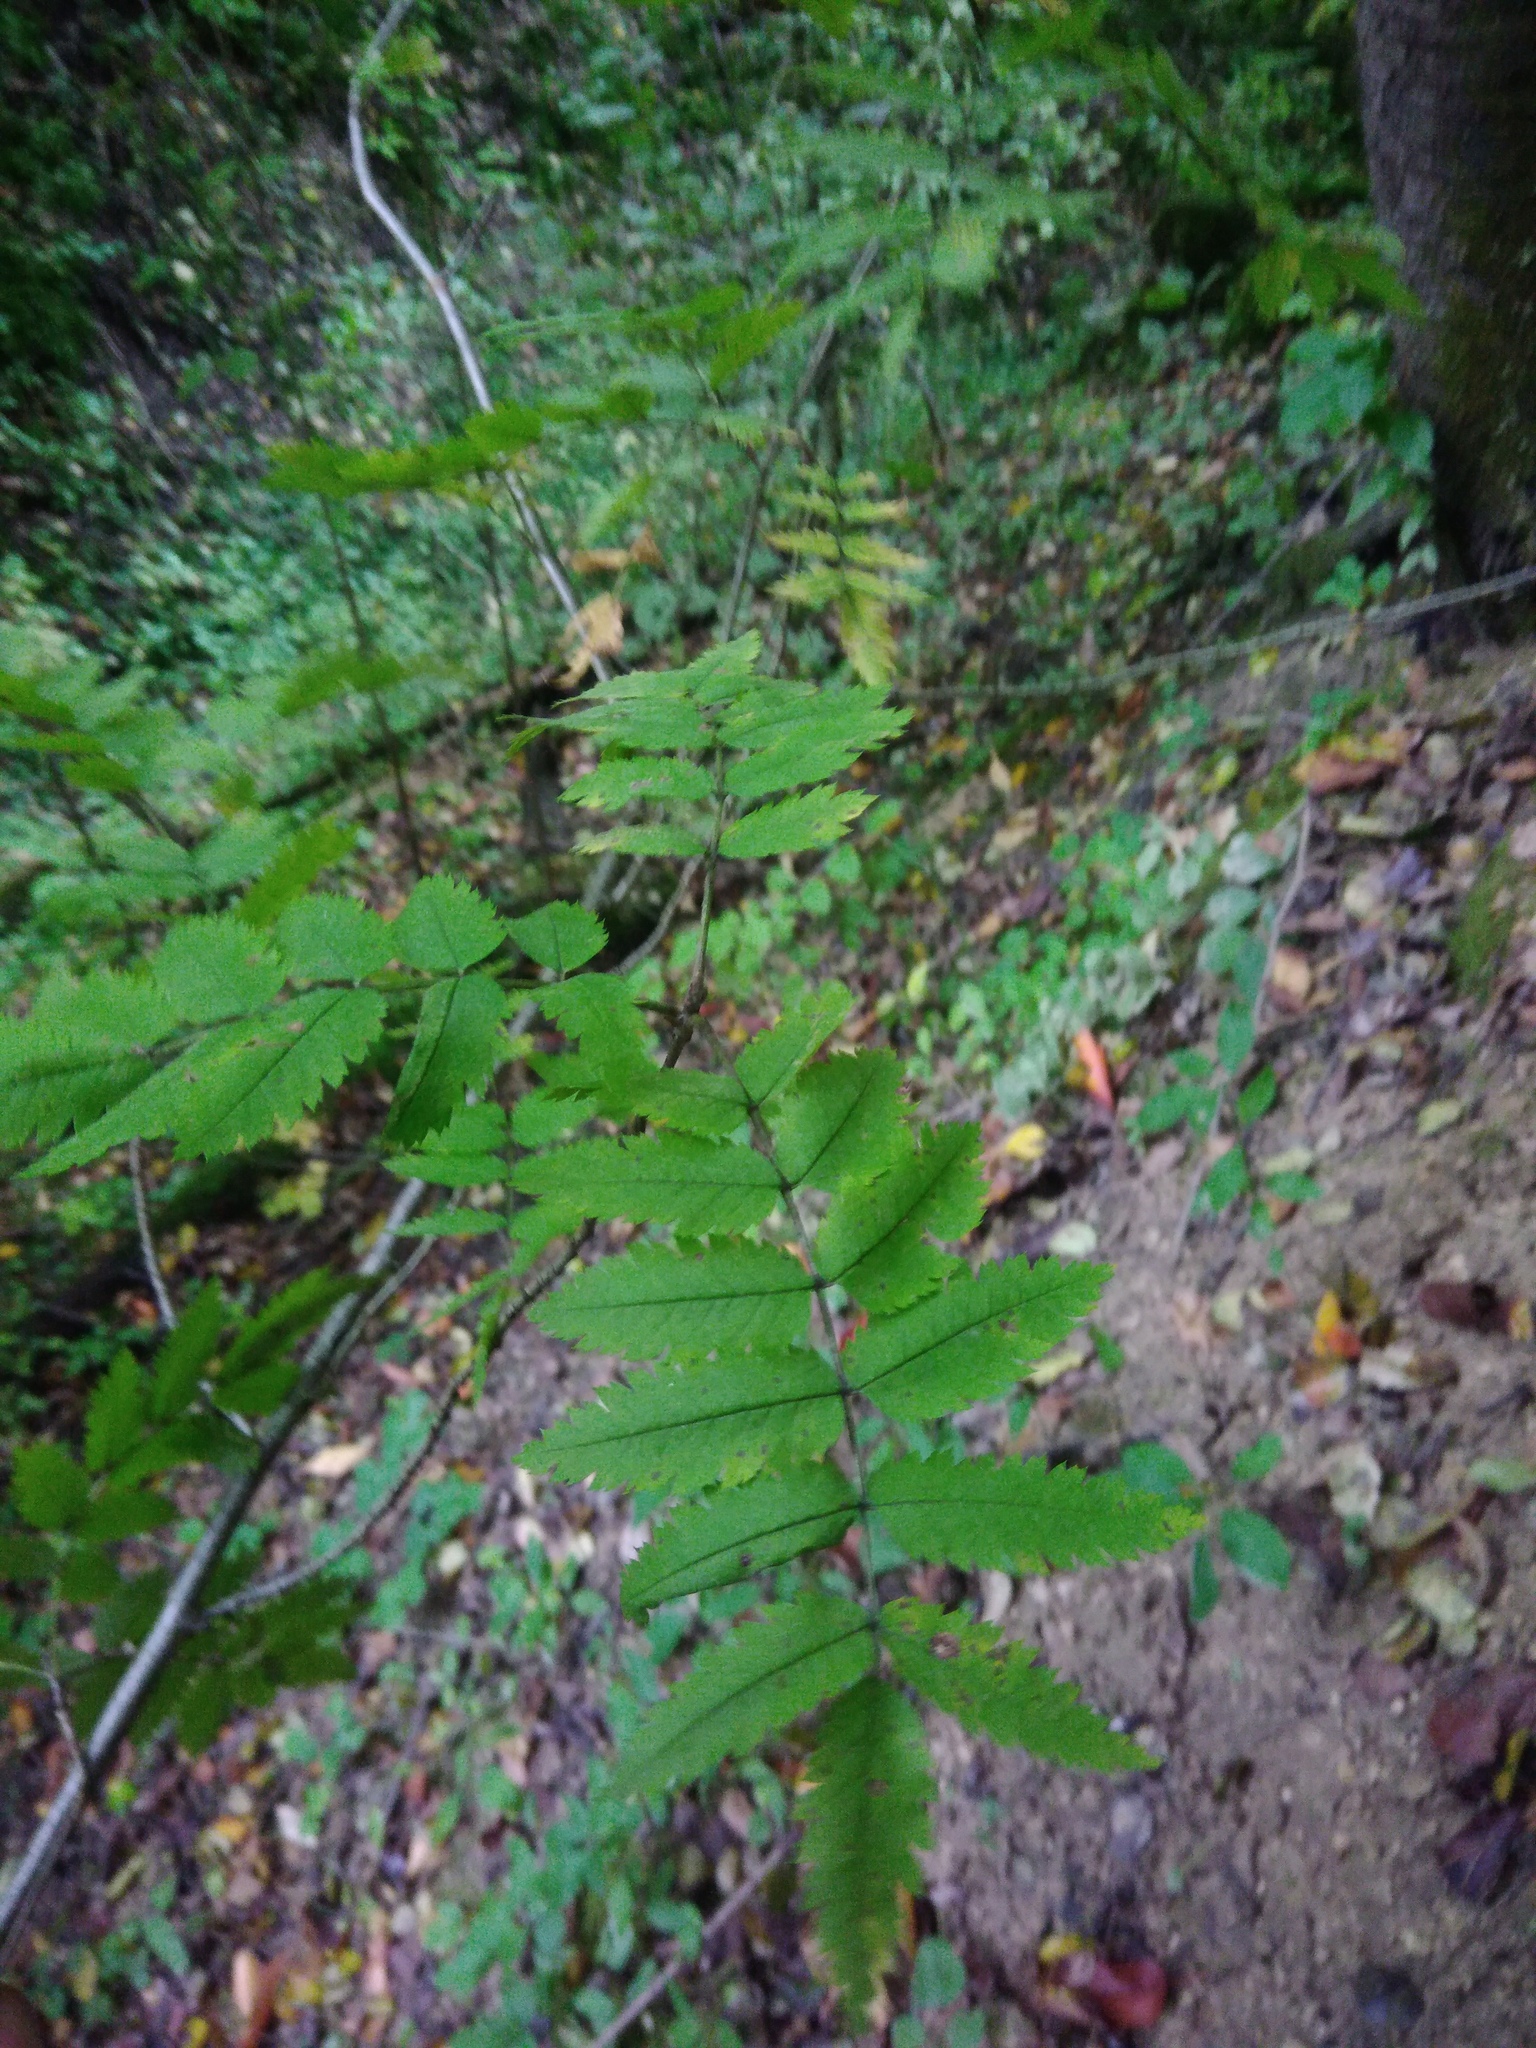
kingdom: Plantae
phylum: Tracheophyta
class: Magnoliopsida
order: Rosales
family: Rosaceae
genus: Sorbus
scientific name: Sorbus aucuparia
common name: Rowan
